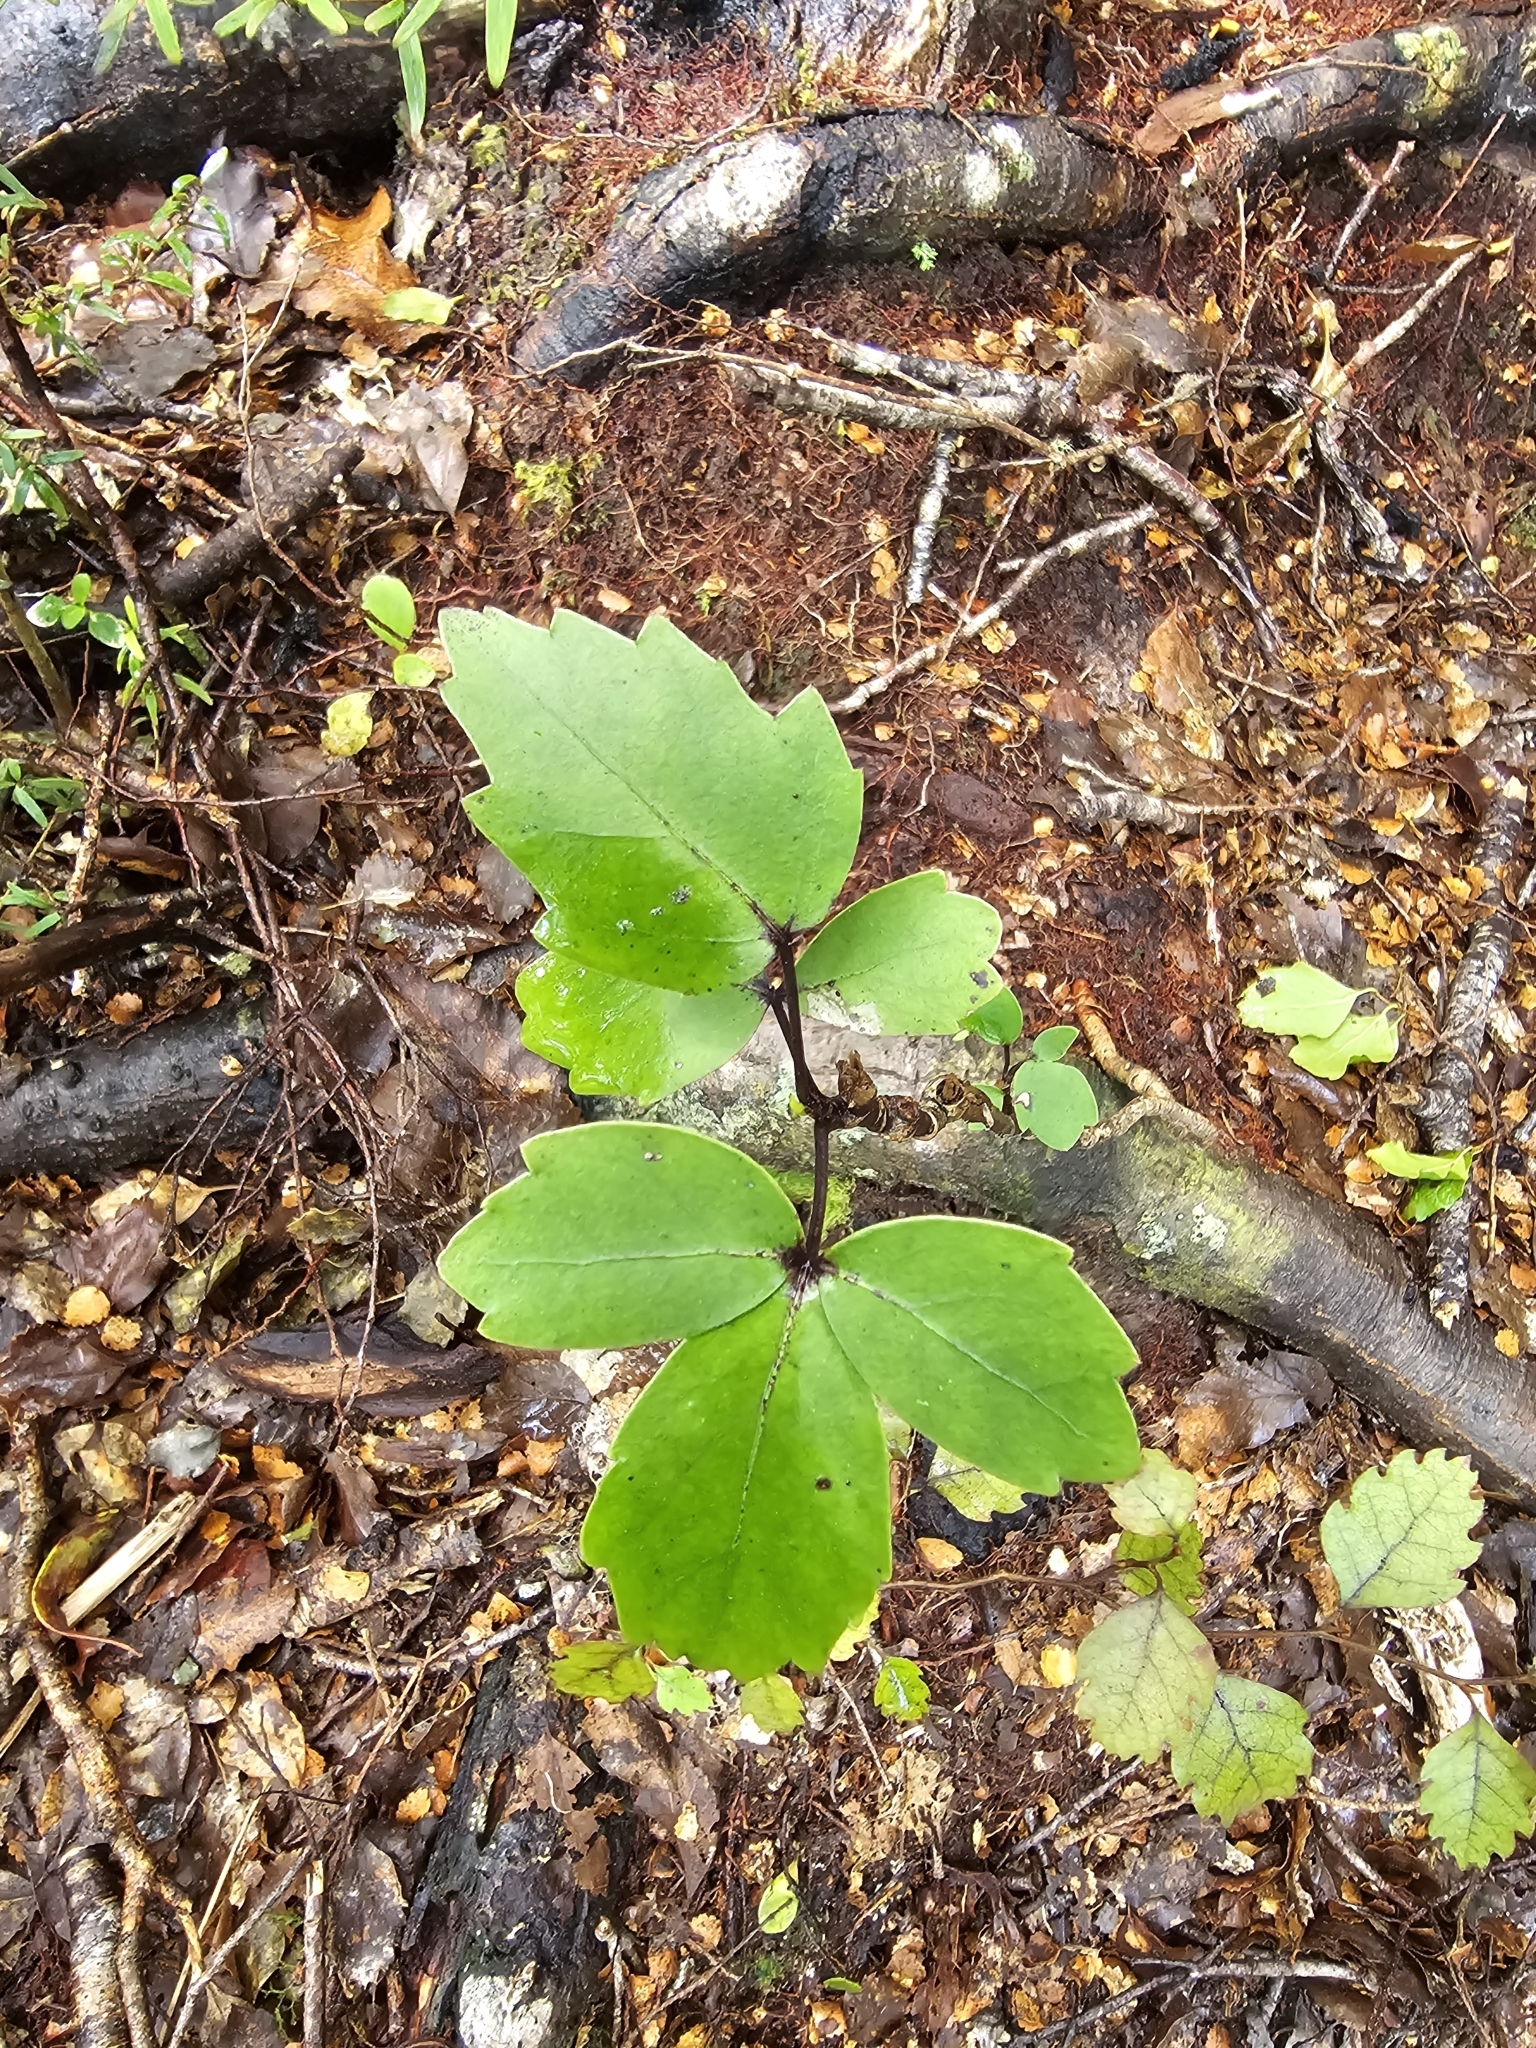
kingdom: Plantae
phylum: Tracheophyta
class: Magnoliopsida
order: Apiales
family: Araliaceae
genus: Neopanax
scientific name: Neopanax colensoi
